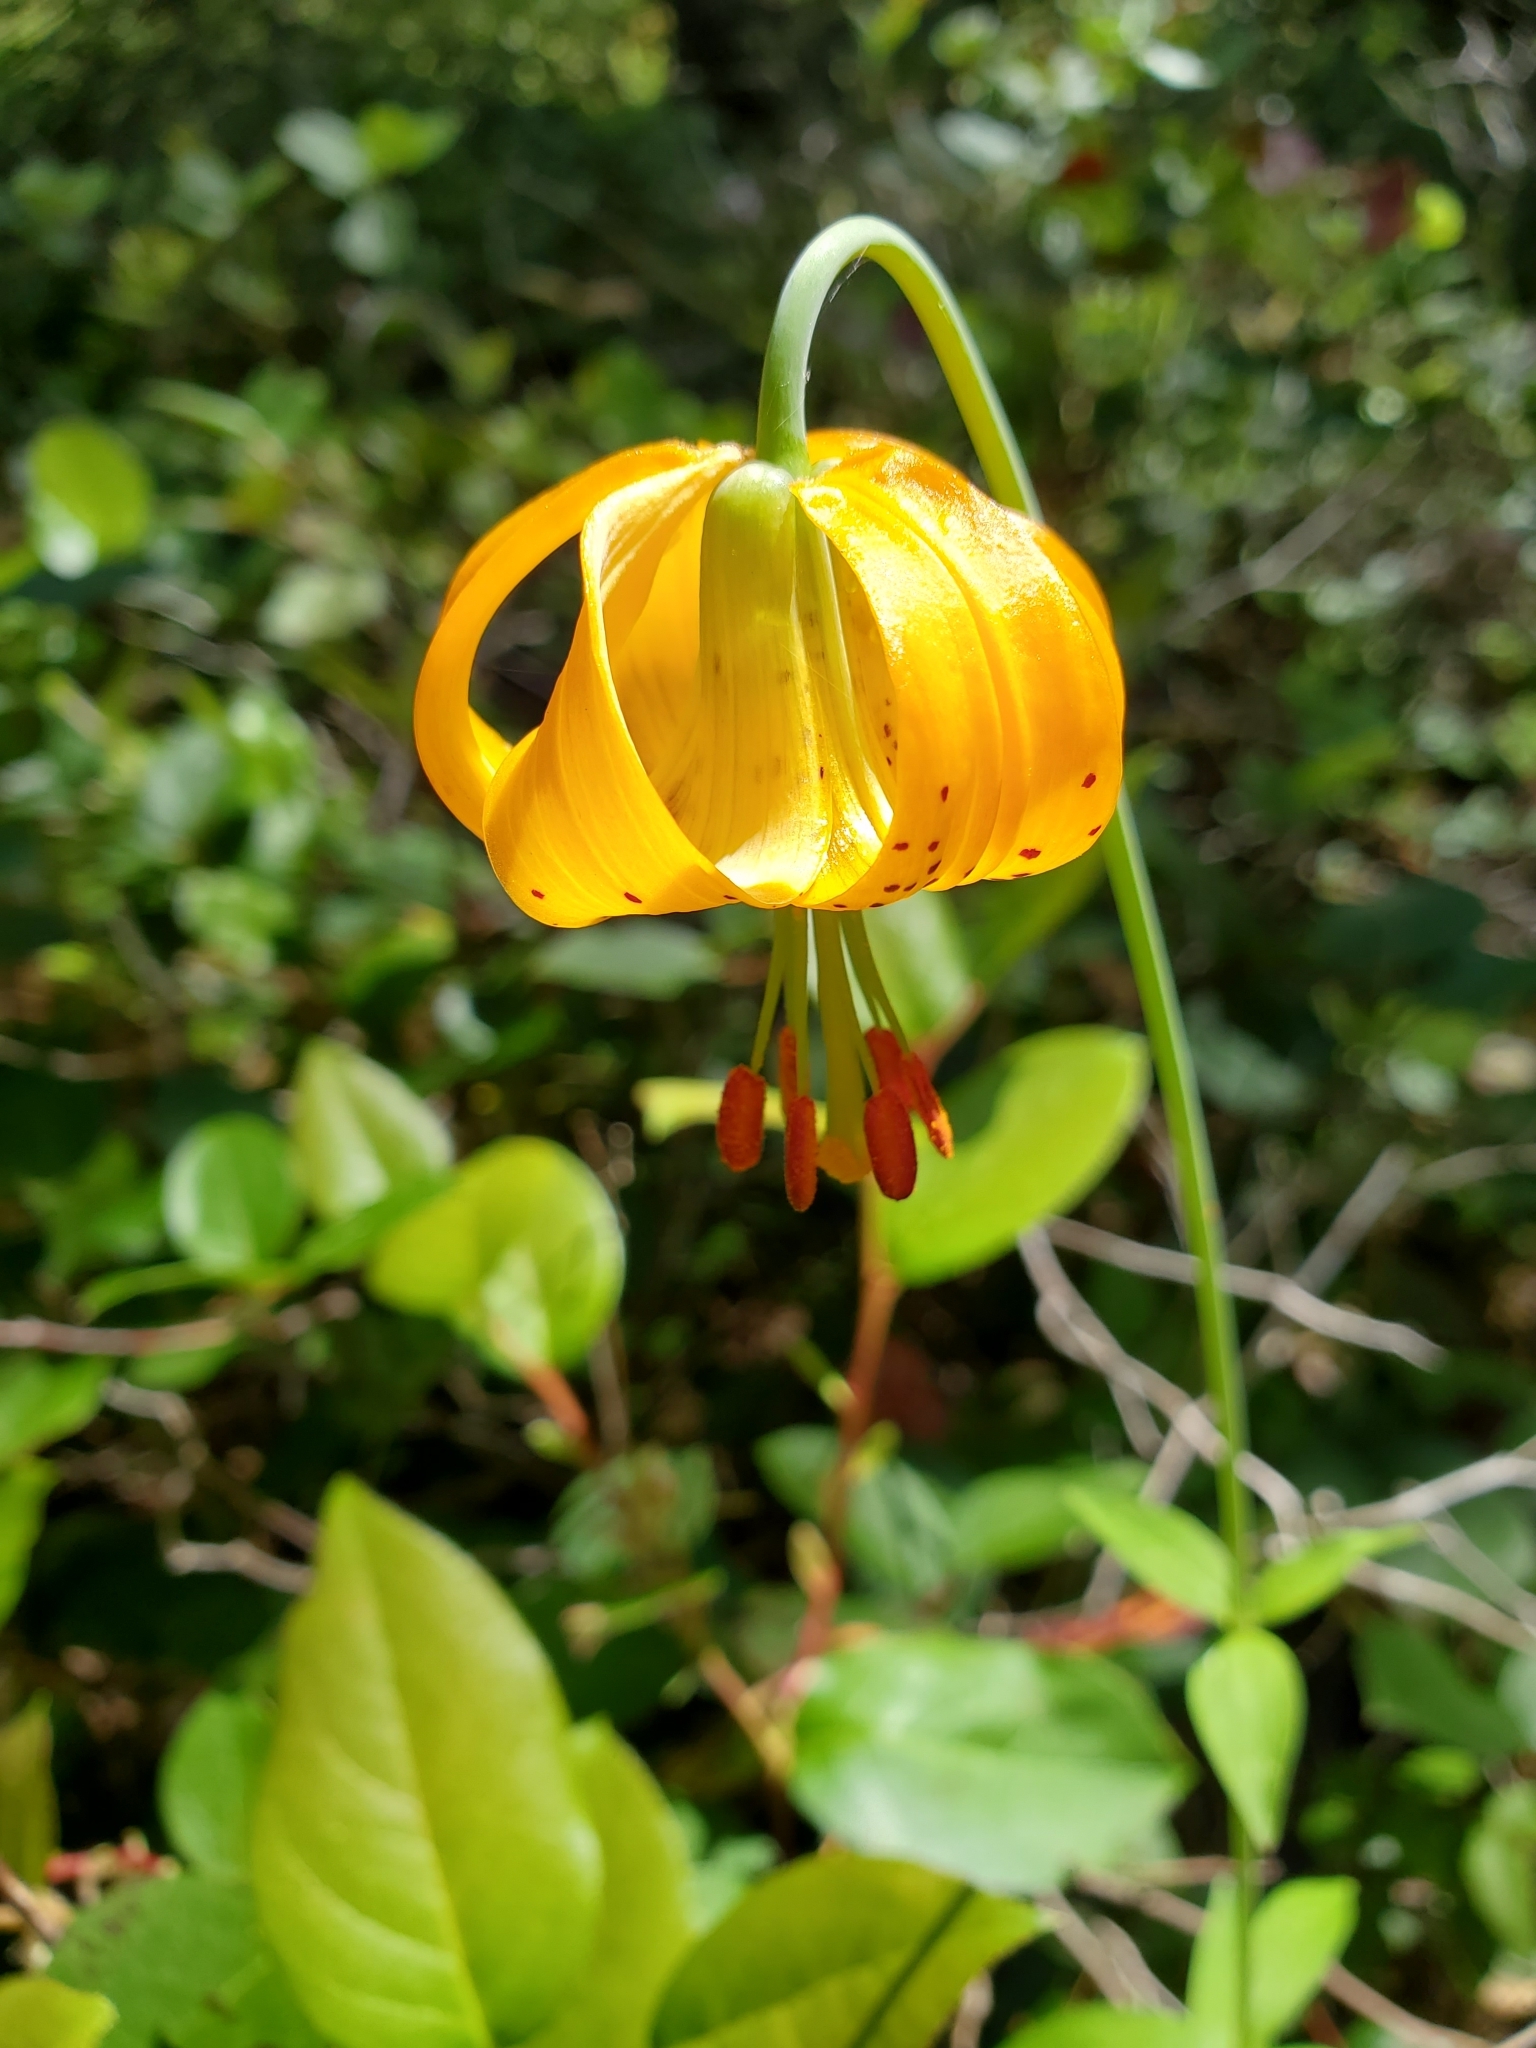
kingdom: Plantae
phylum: Tracheophyta
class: Liliopsida
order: Liliales
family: Liliaceae
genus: Lilium
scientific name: Lilium columbianum
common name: Columbia lily
